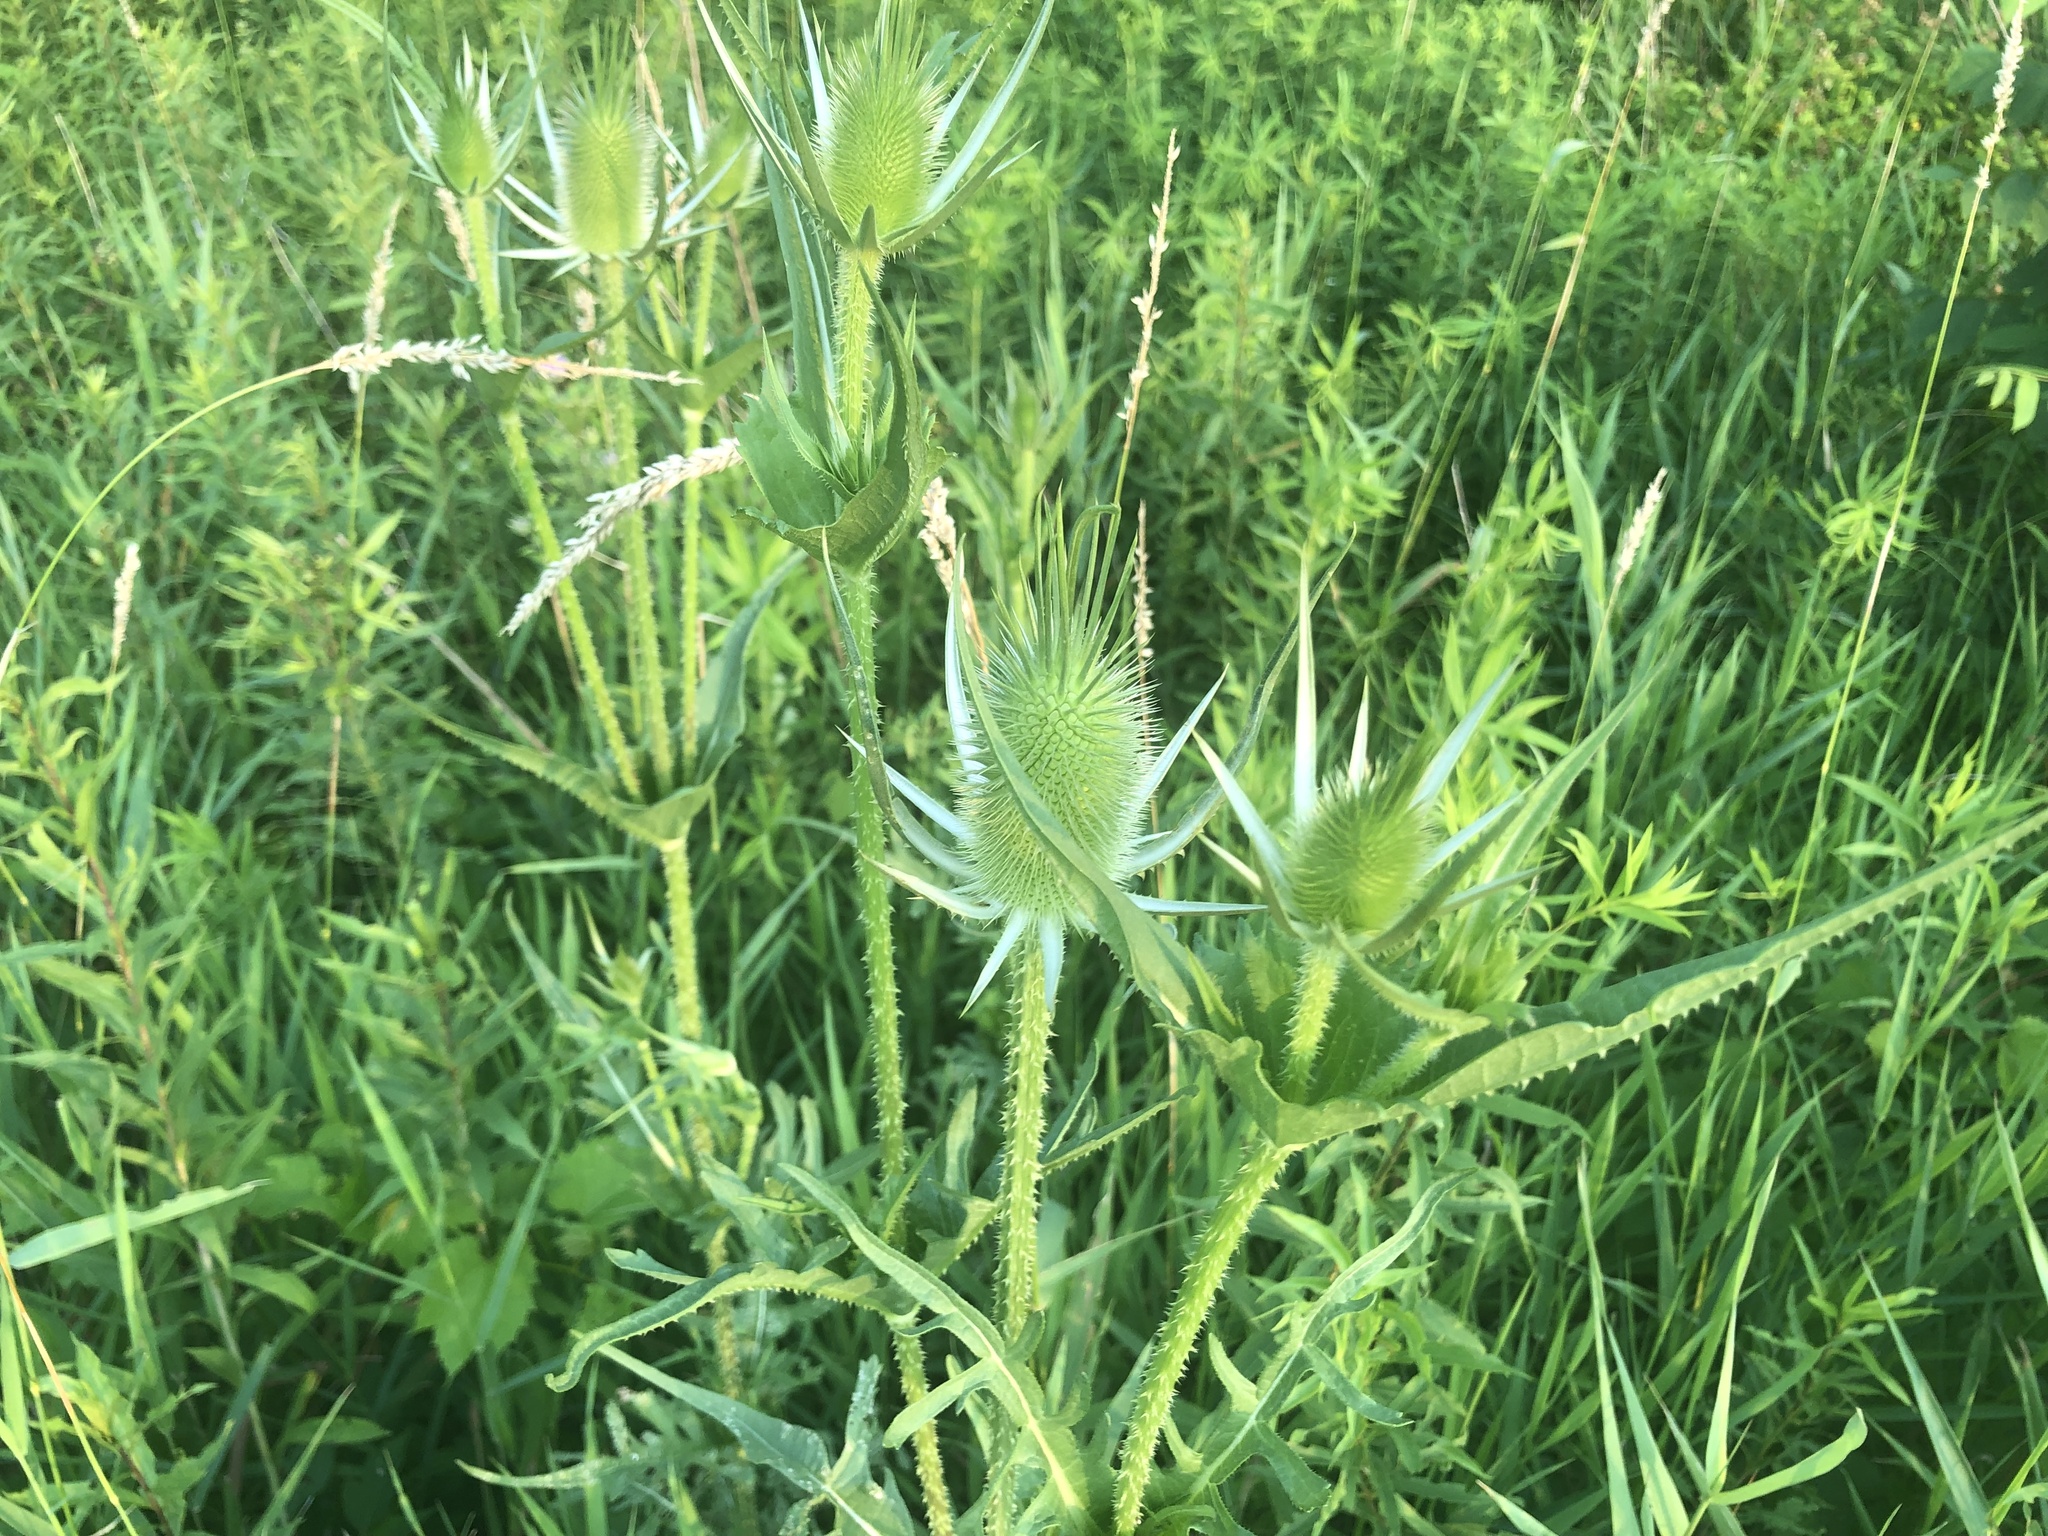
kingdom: Plantae
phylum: Tracheophyta
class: Magnoliopsida
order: Dipsacales
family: Caprifoliaceae
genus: Dipsacus
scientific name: Dipsacus laciniatus
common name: Cut-leaved teasel
